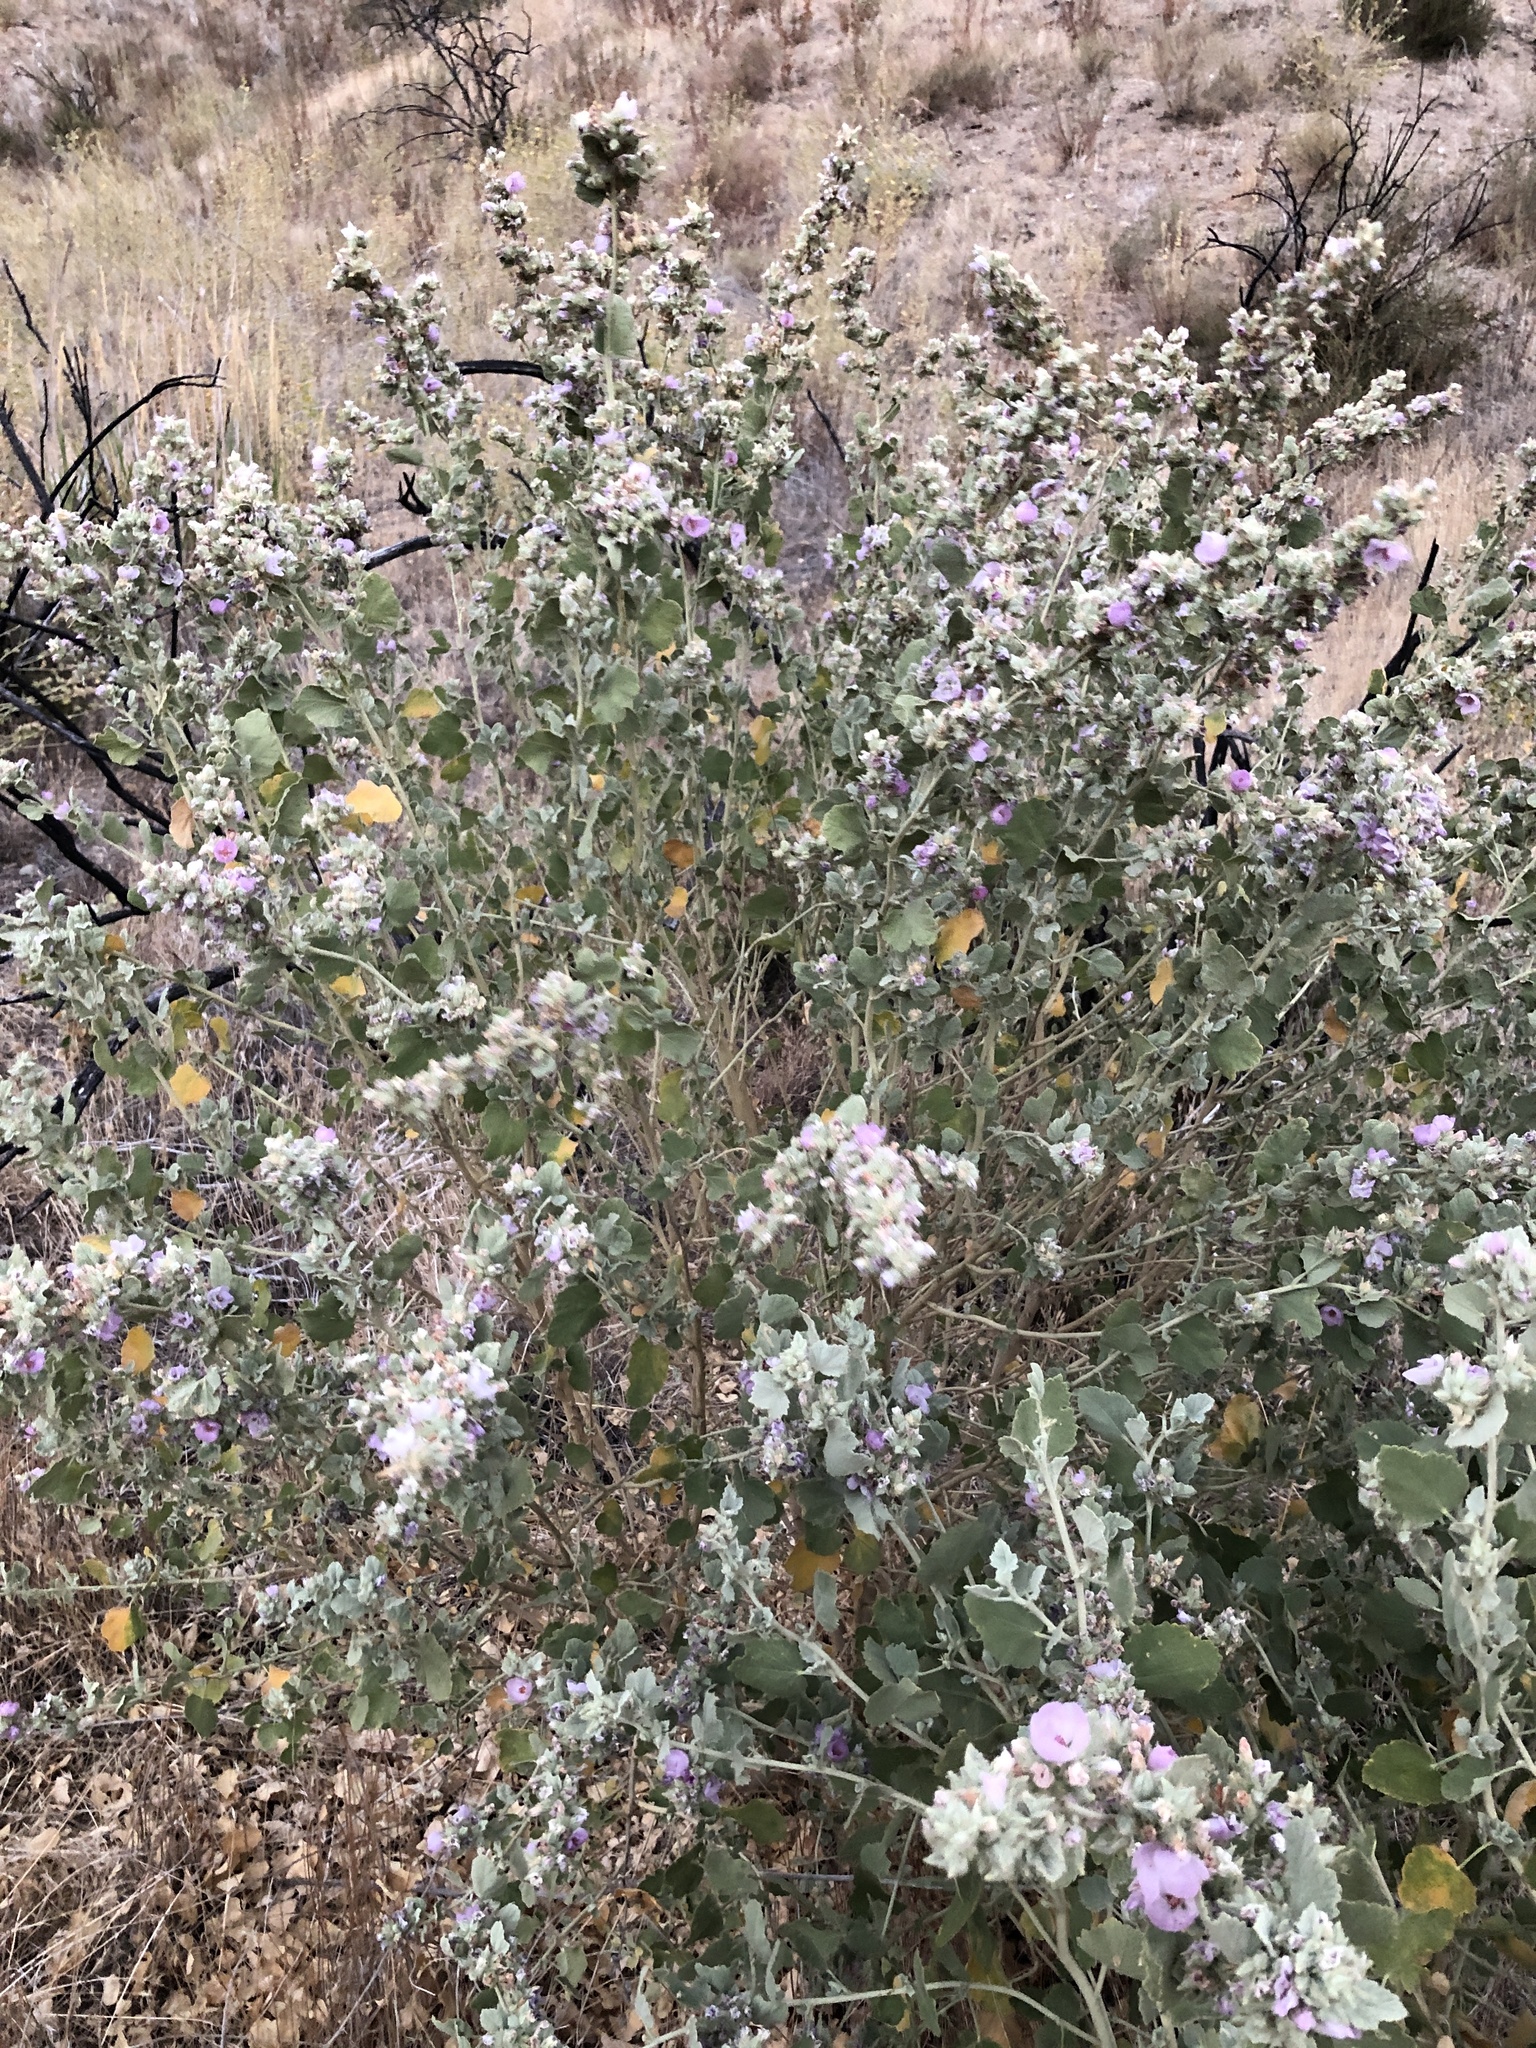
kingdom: Plantae
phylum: Tracheophyta
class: Magnoliopsida
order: Malvales
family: Malvaceae
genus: Malacothamnus
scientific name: Malacothamnus marrubioides
